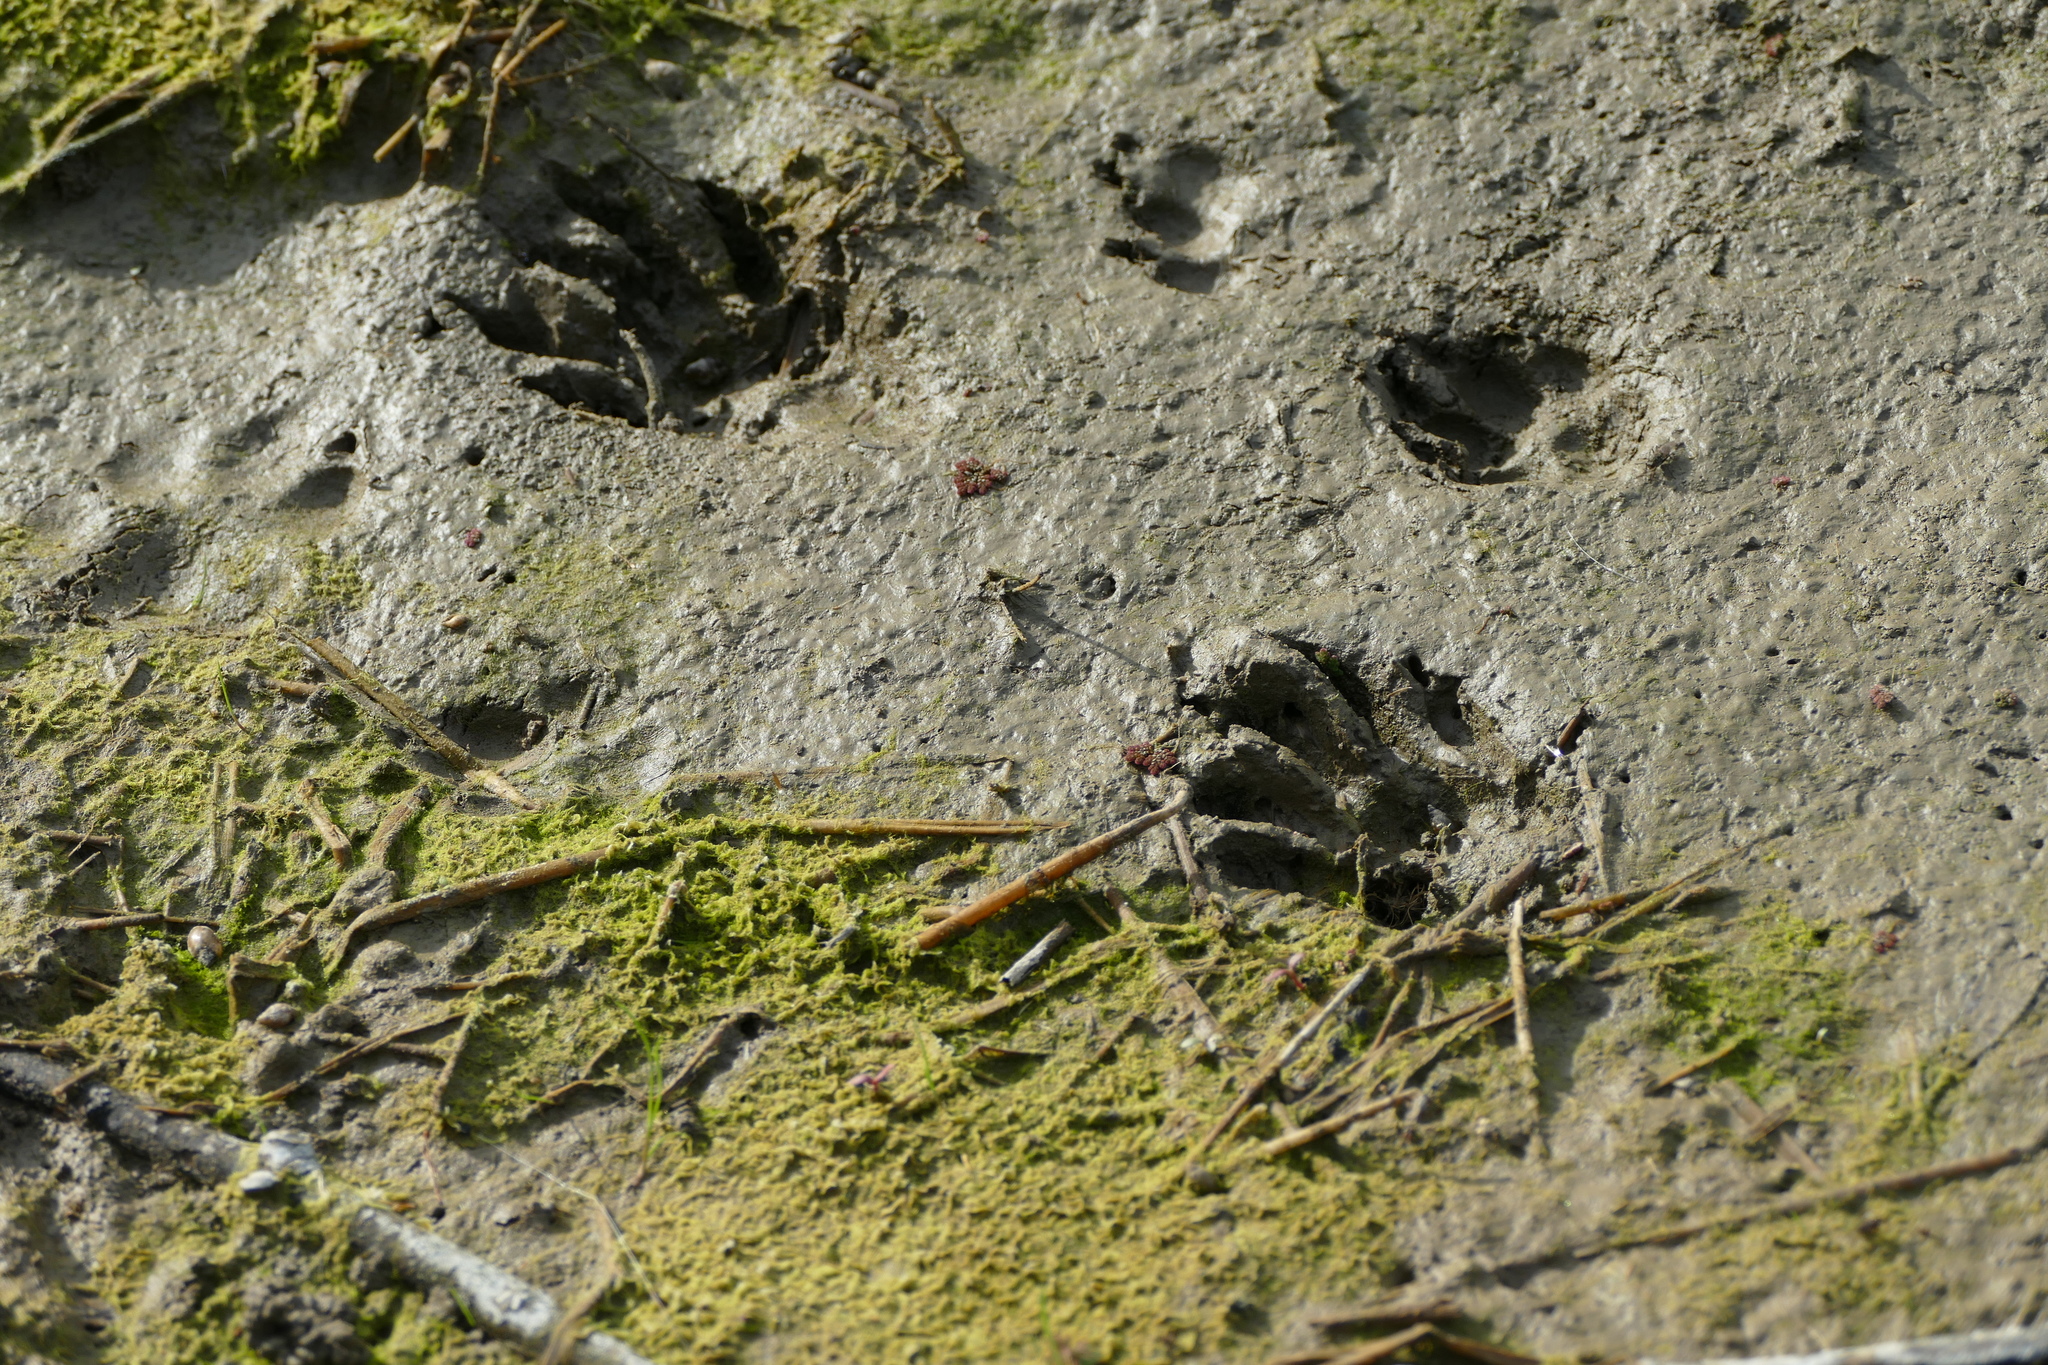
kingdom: Animalia
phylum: Chordata
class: Mammalia
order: Carnivora
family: Procyonidae
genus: Procyon
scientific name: Procyon lotor
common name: Raccoon
